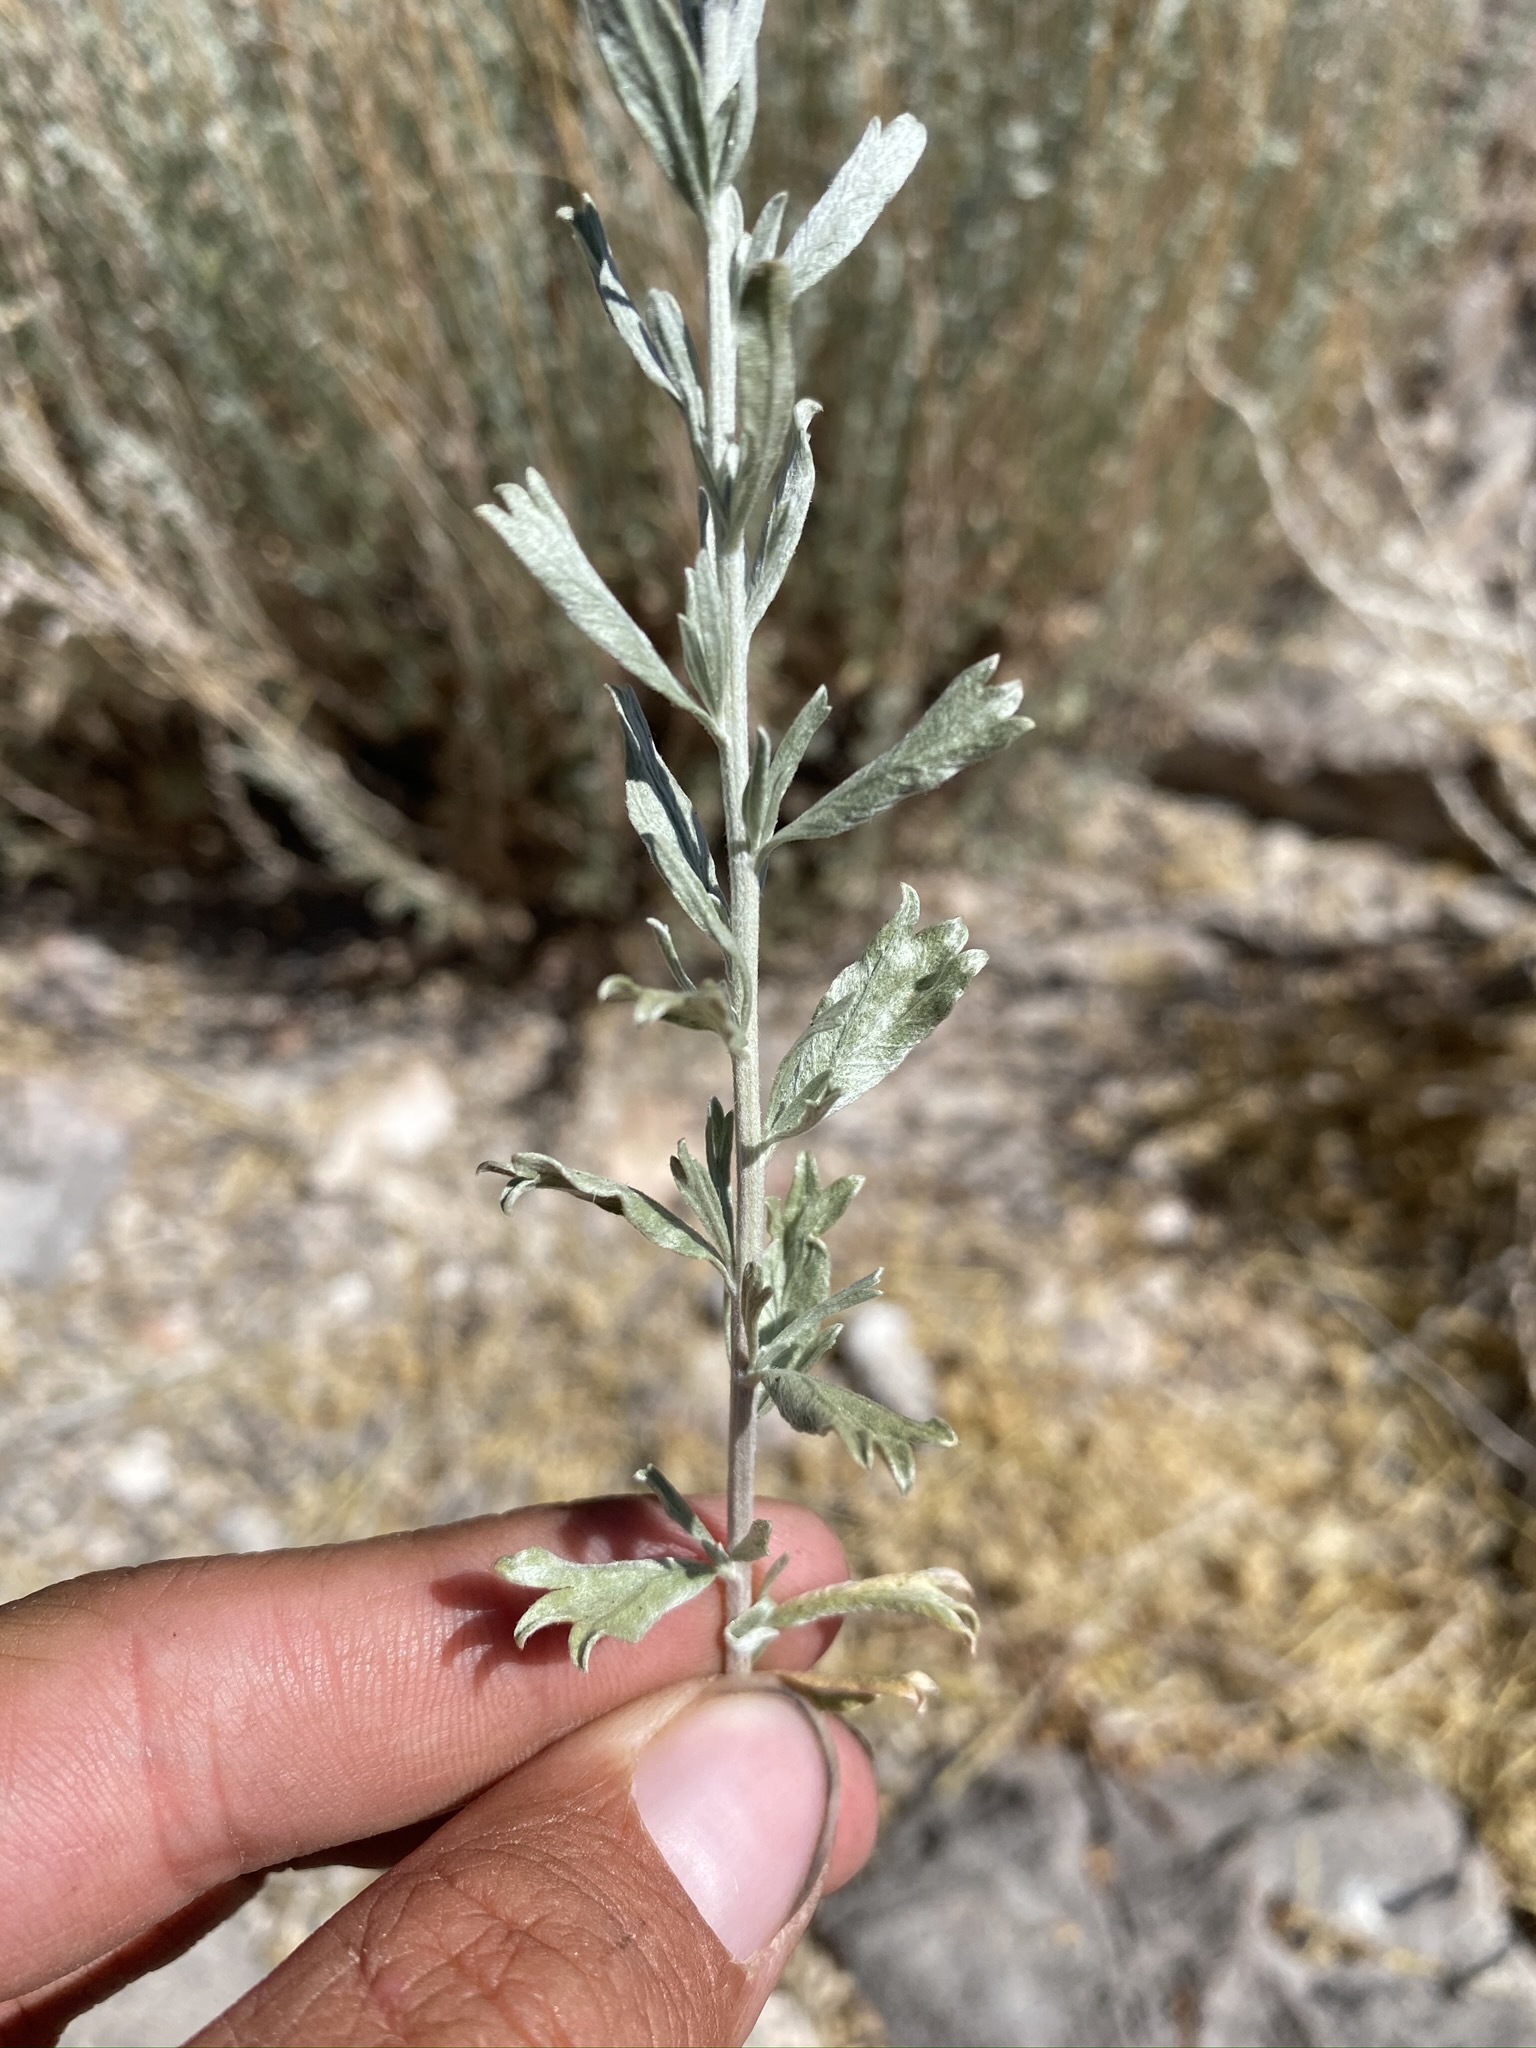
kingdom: Plantae
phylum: Tracheophyta
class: Magnoliopsida
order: Asterales
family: Asteraceae
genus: Artemisia
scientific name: Artemisia bigelovii
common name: Bigelow sagebrush
